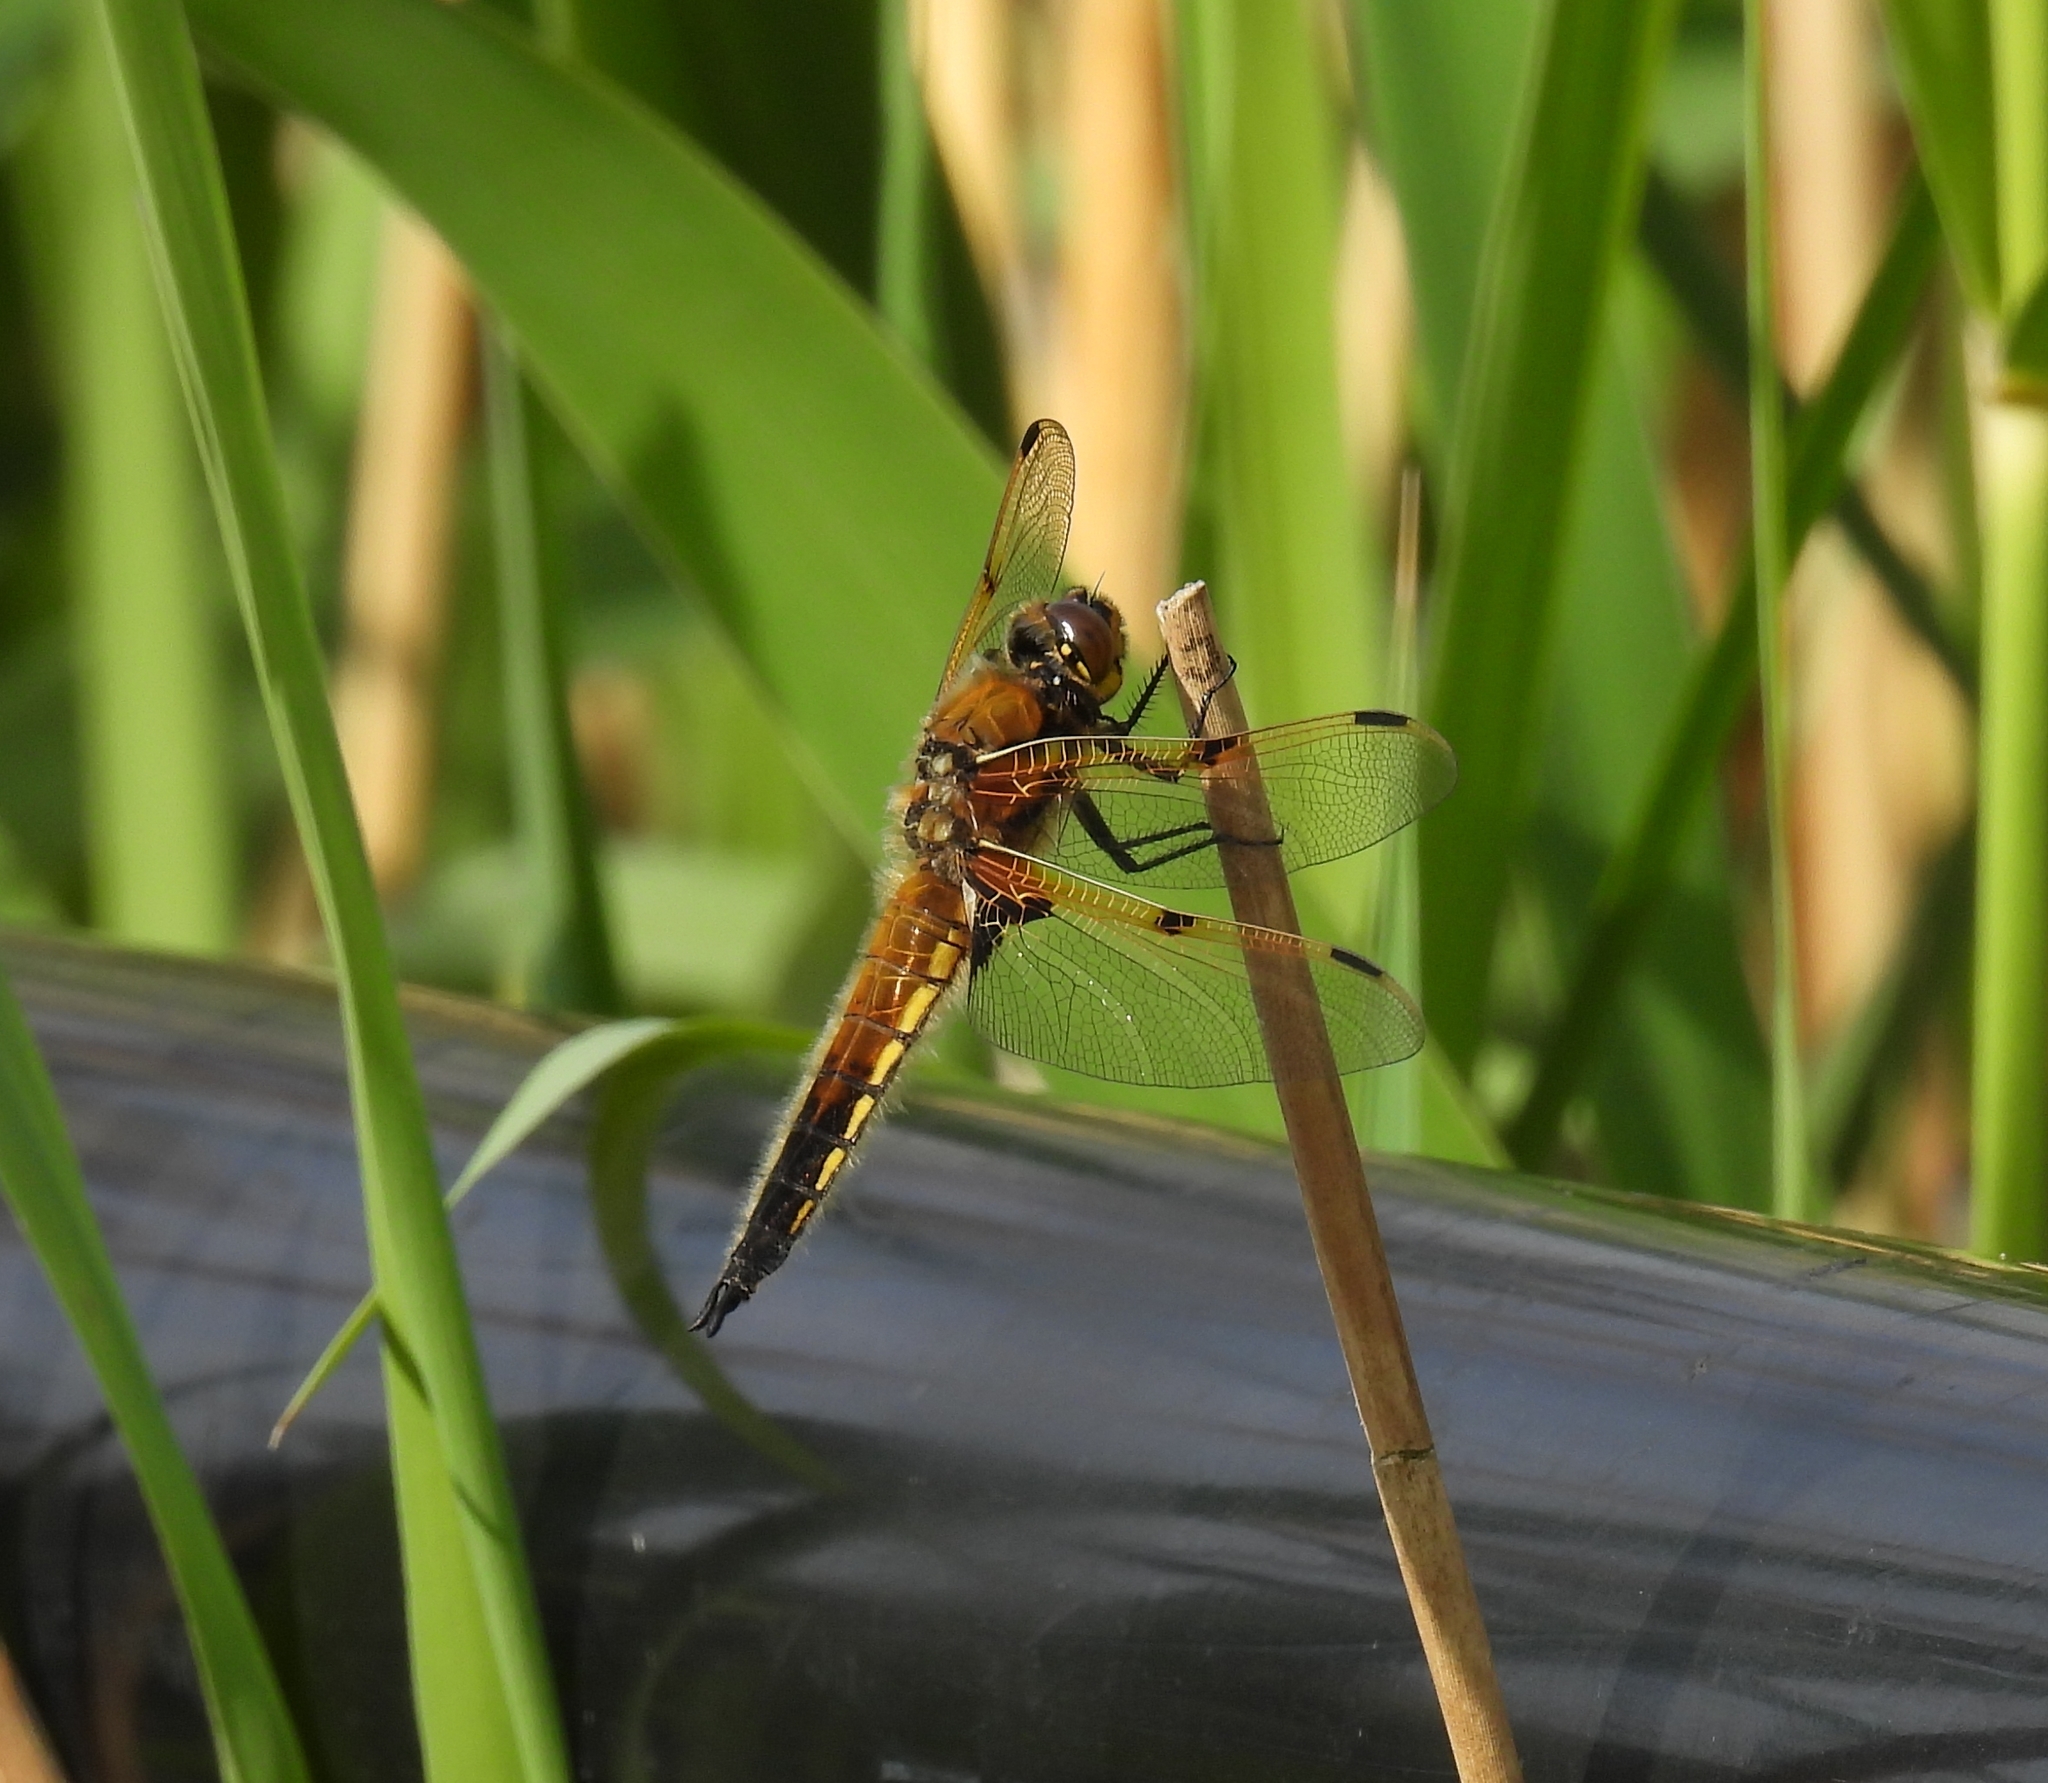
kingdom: Animalia
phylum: Arthropoda
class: Insecta
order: Odonata
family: Libellulidae
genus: Libellula
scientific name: Libellula quadrimaculata
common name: Four-spotted chaser
